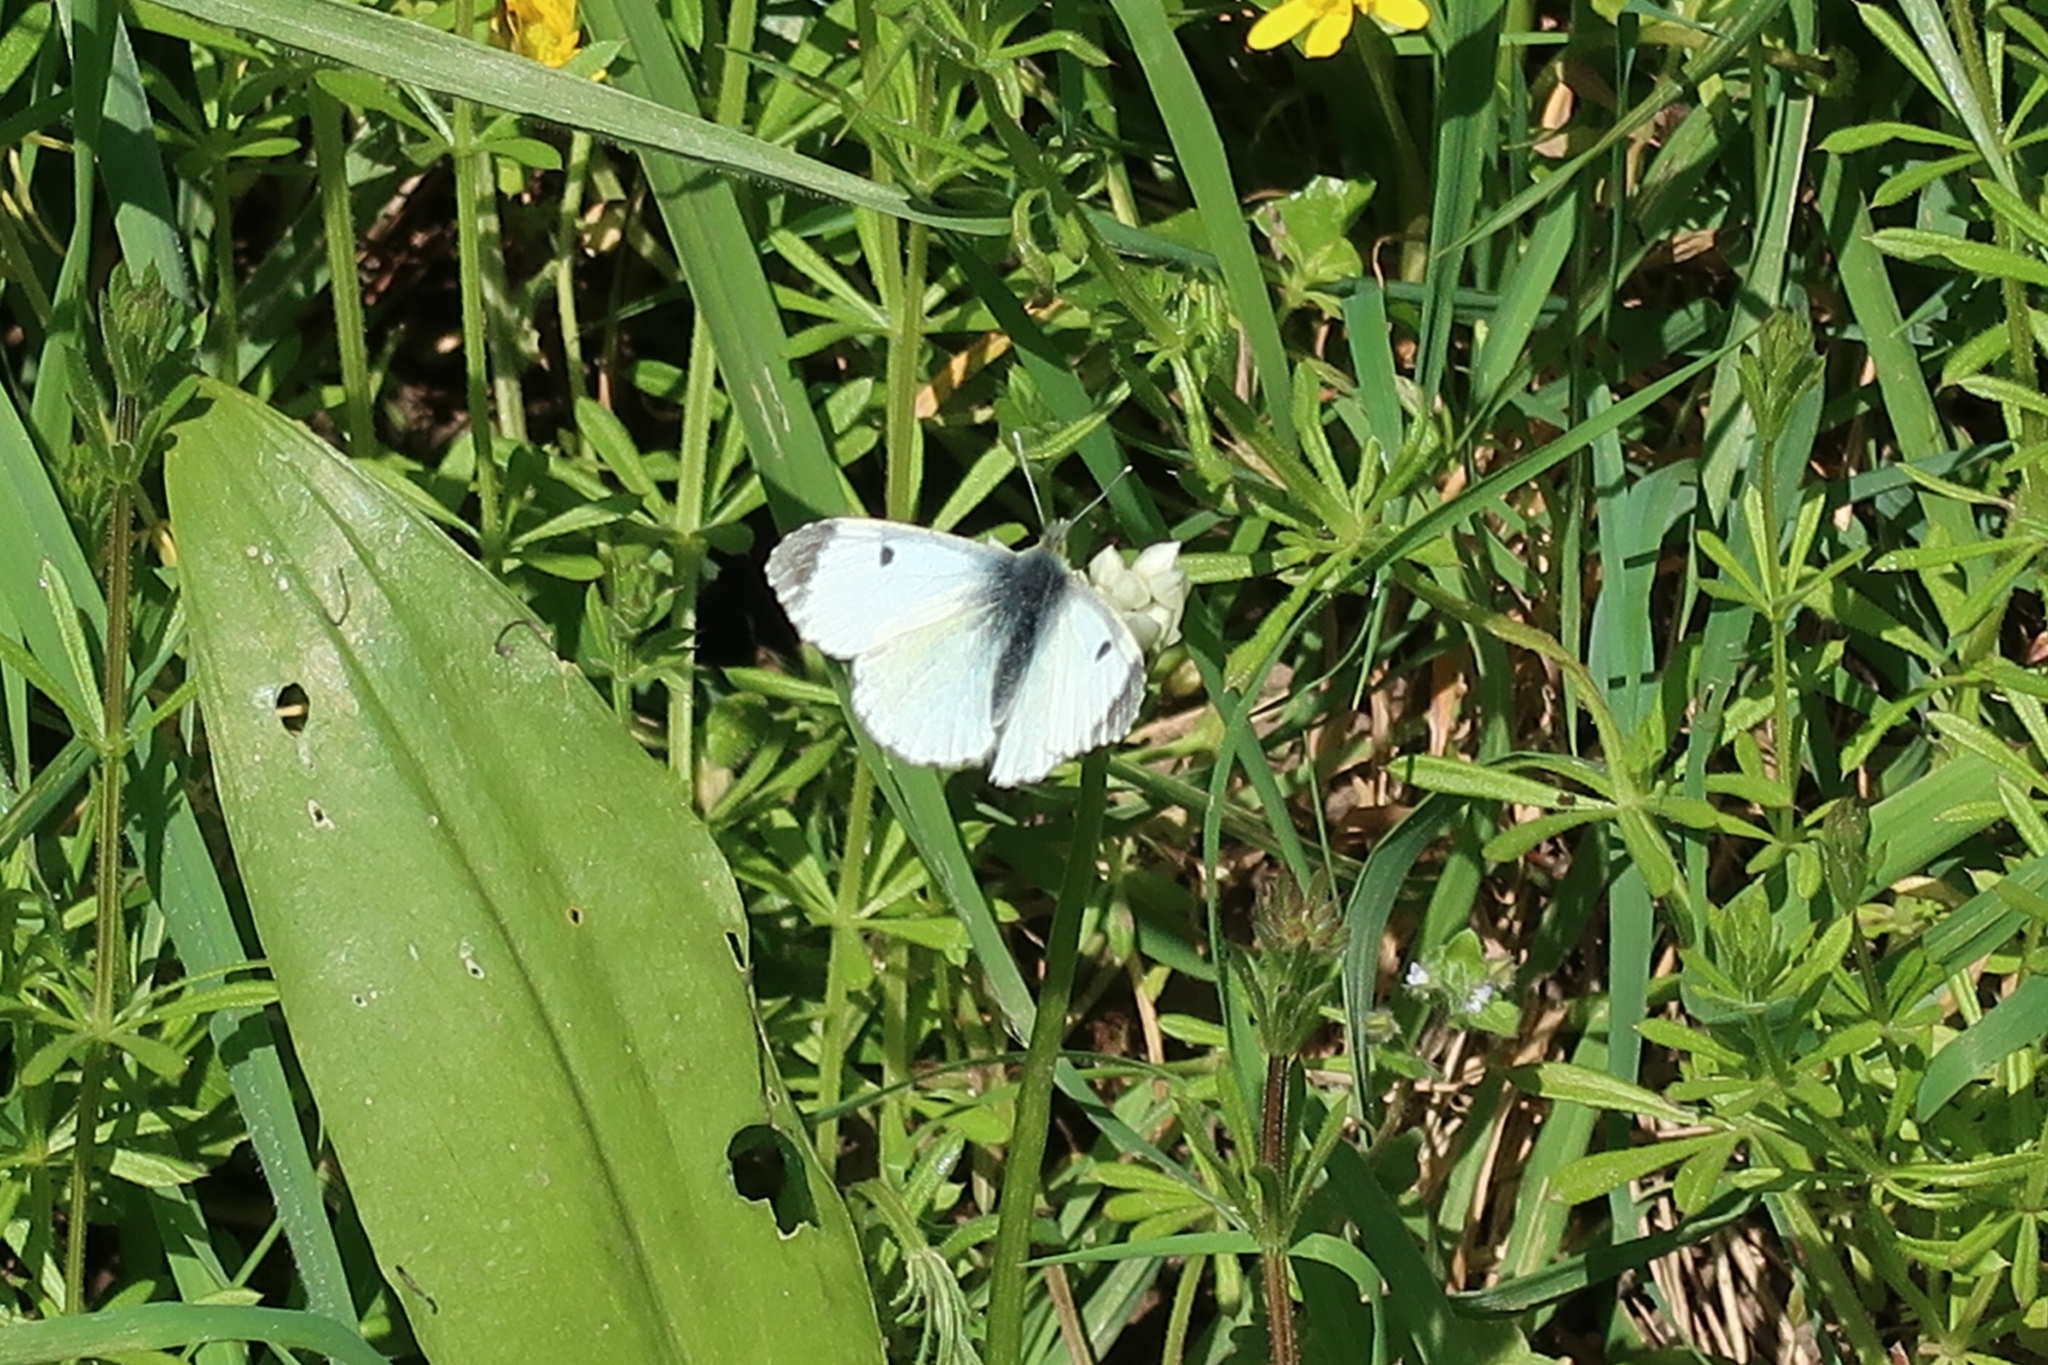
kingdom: Animalia
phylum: Arthropoda
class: Insecta
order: Lepidoptera
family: Pieridae
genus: Anthocharis
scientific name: Anthocharis cardamines
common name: Orange-tip
